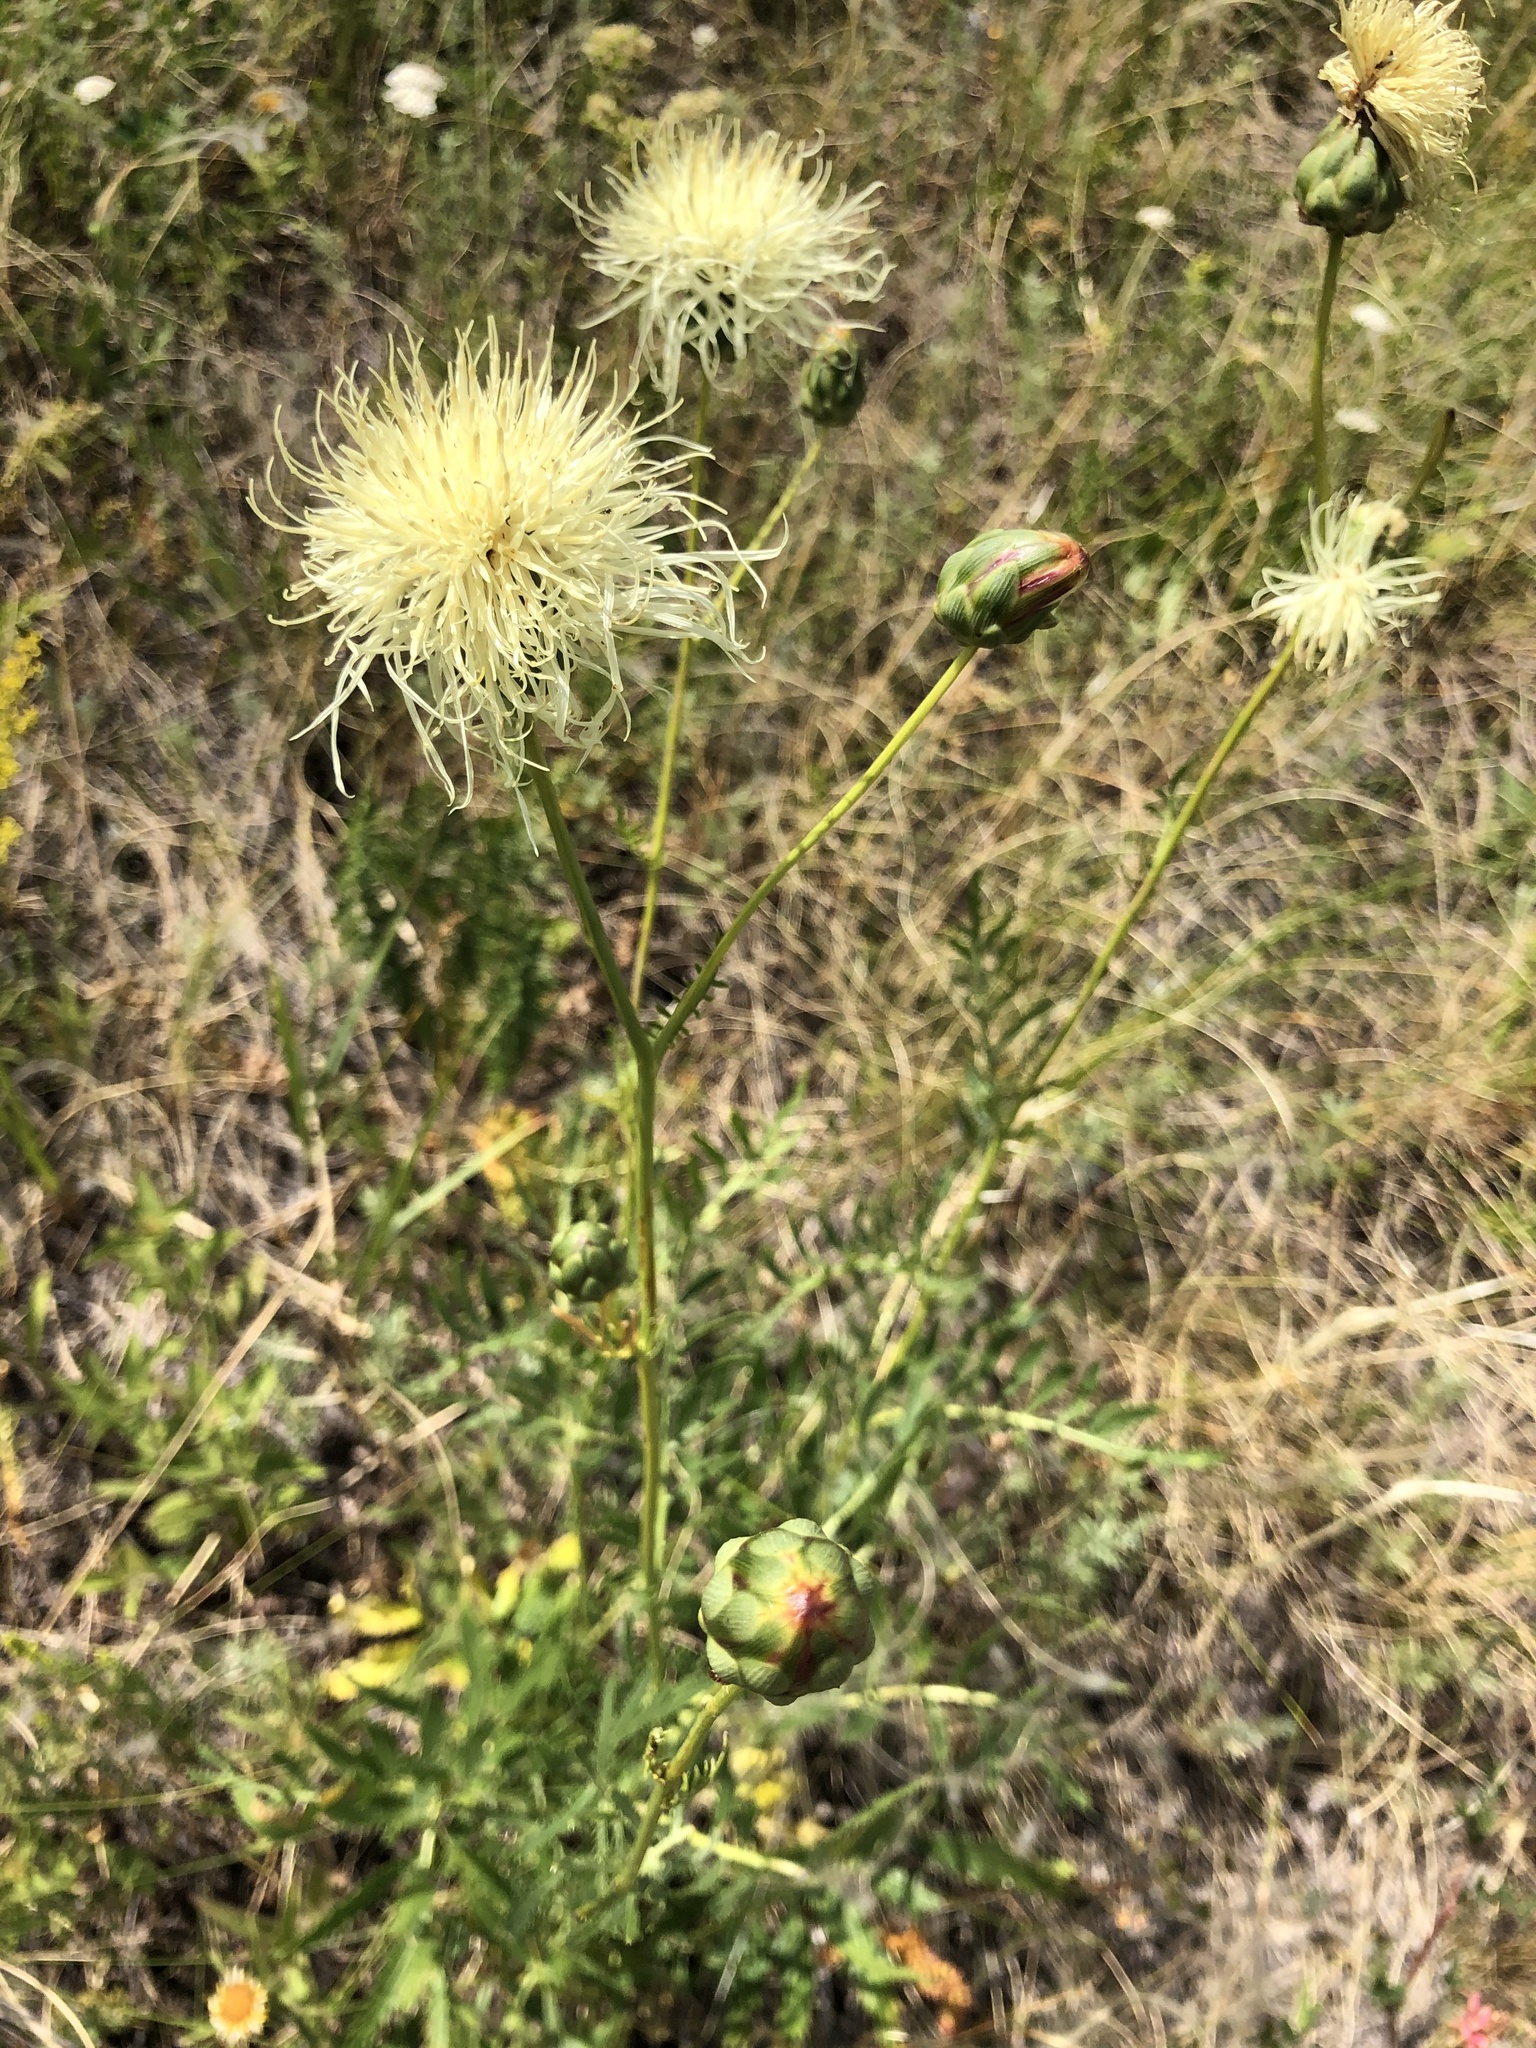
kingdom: Plantae
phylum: Tracheophyta
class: Magnoliopsida
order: Asterales
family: Asteraceae
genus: Rhaponticoides
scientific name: Rhaponticoides ruthenica
